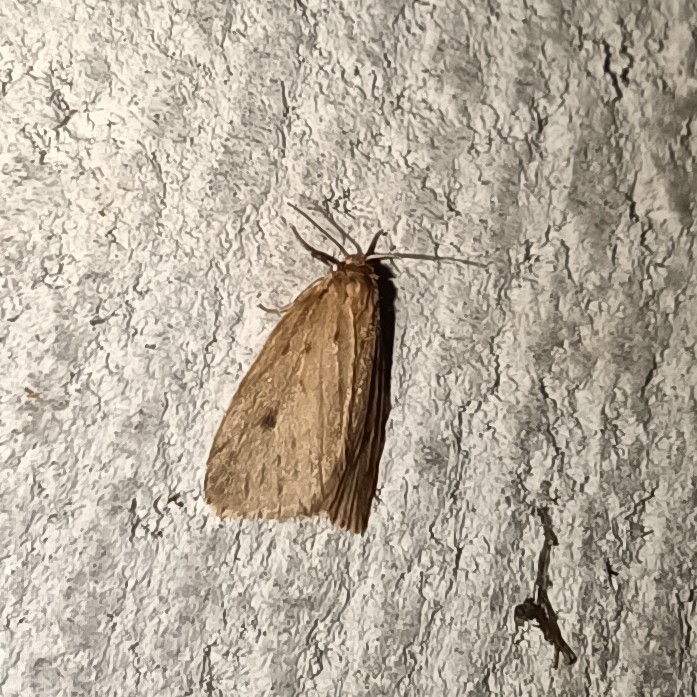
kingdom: Animalia
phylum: Arthropoda
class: Insecta
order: Lepidoptera
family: Erebidae
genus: Thumatha
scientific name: Thumatha senex
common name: Round-winged muslin
